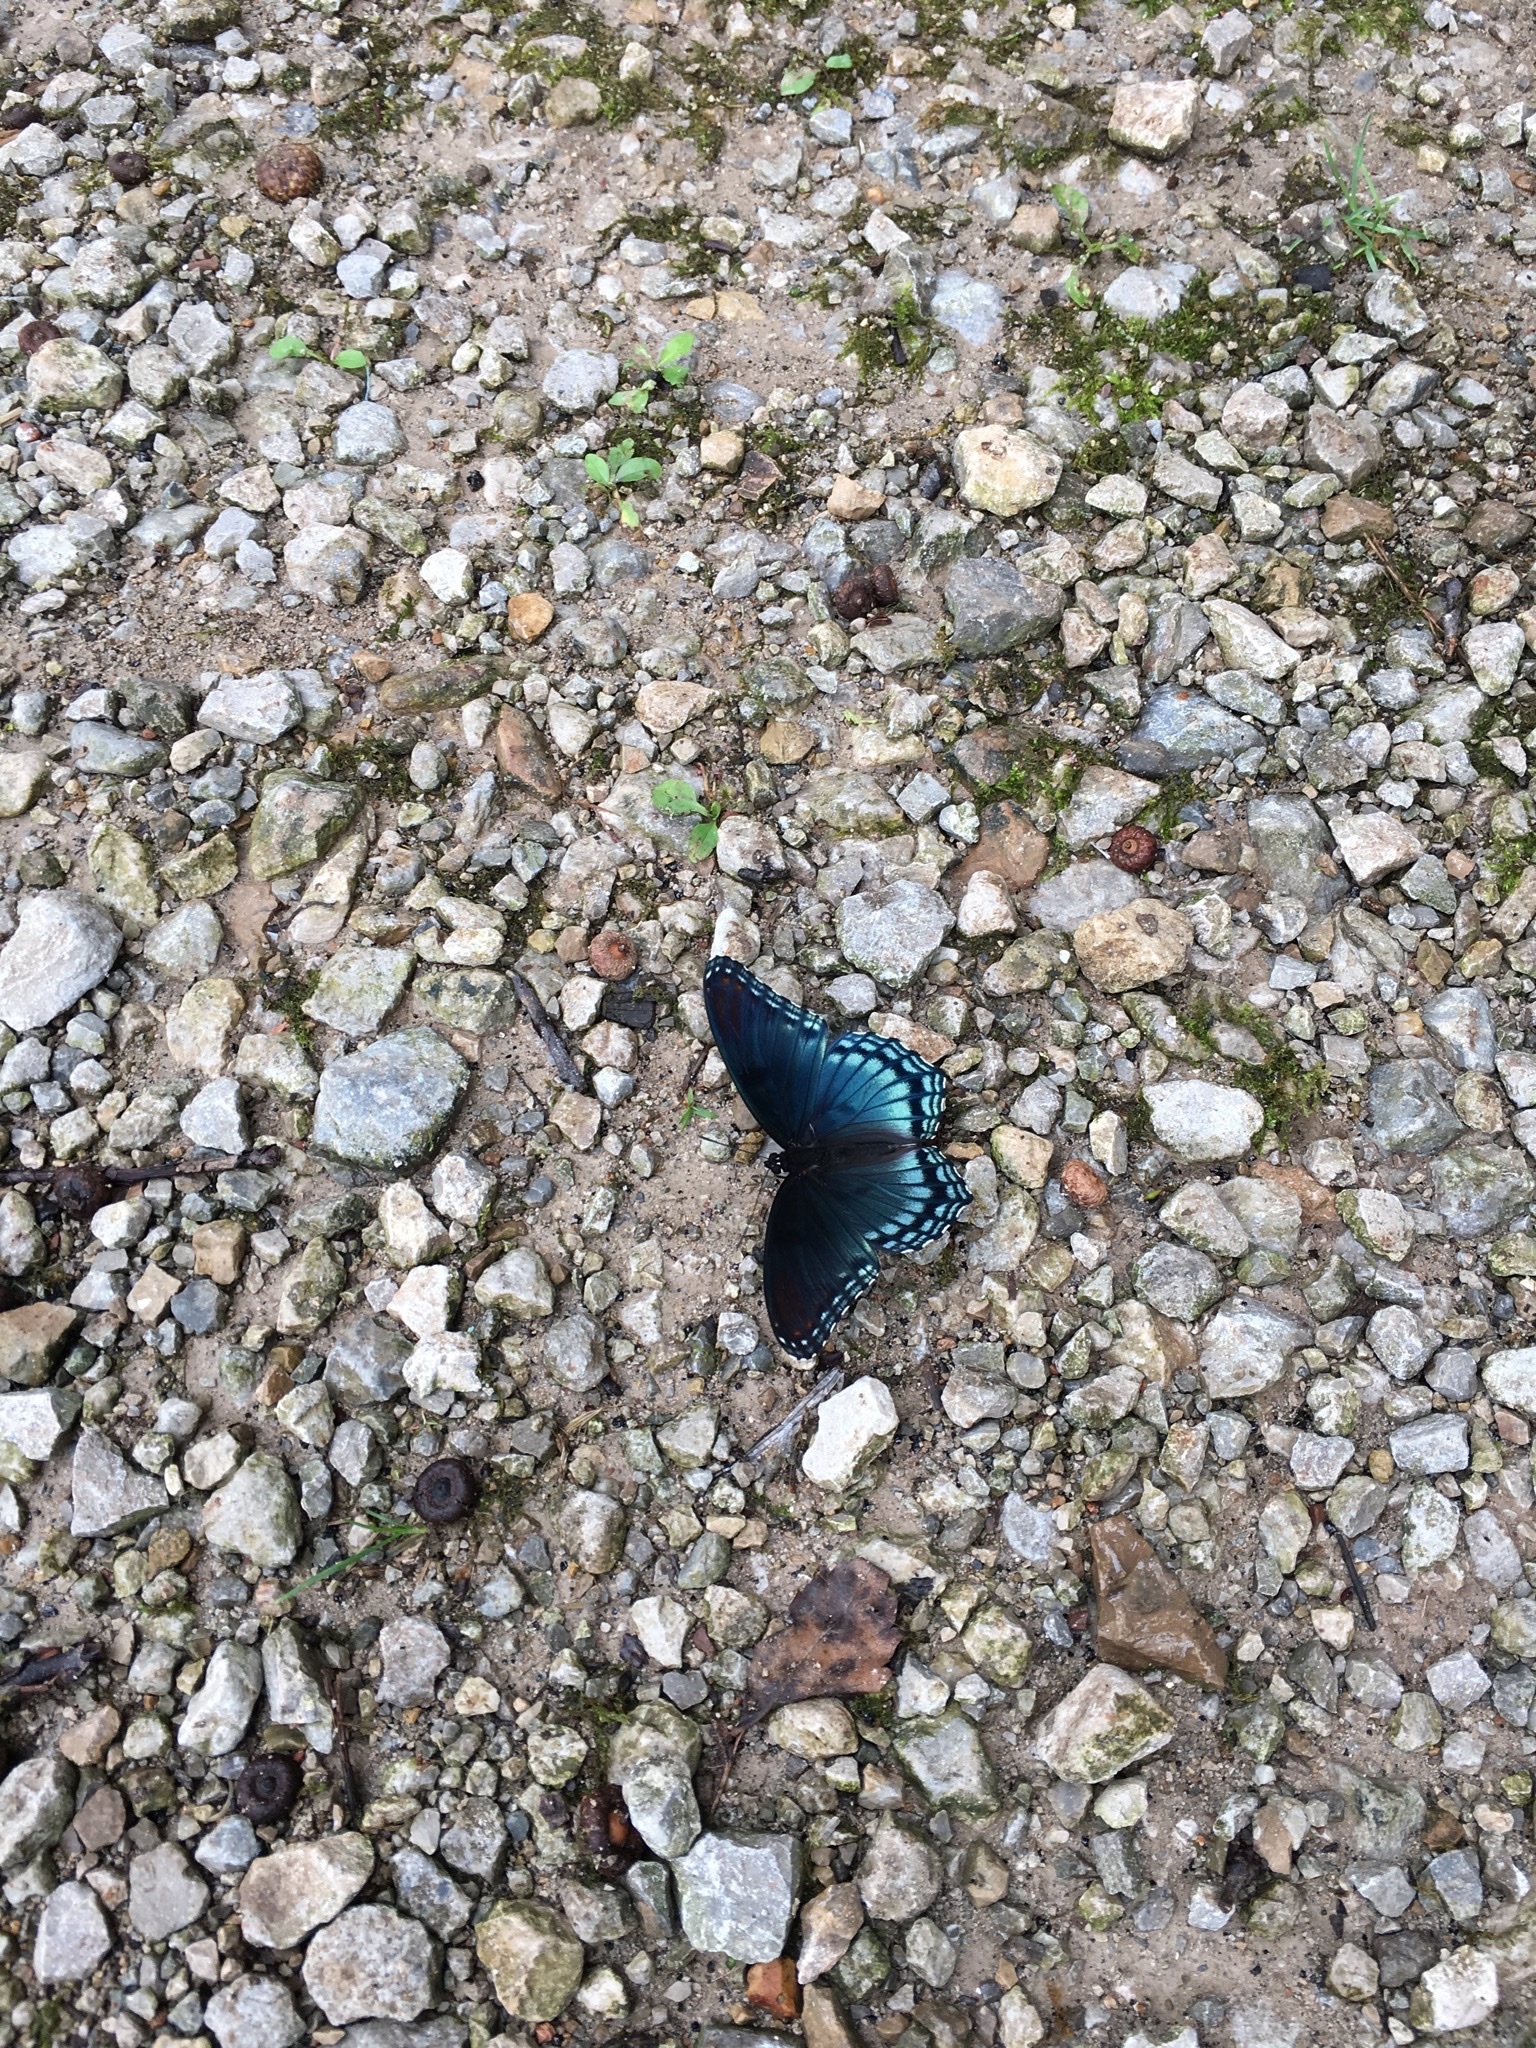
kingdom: Animalia
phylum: Arthropoda
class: Insecta
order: Lepidoptera
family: Nymphalidae
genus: Limenitis
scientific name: Limenitis astyanax
